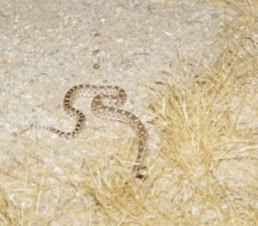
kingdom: Animalia
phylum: Chordata
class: Squamata
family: Colubridae
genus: Pituophis
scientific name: Pituophis catenifer
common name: Gopher snake
